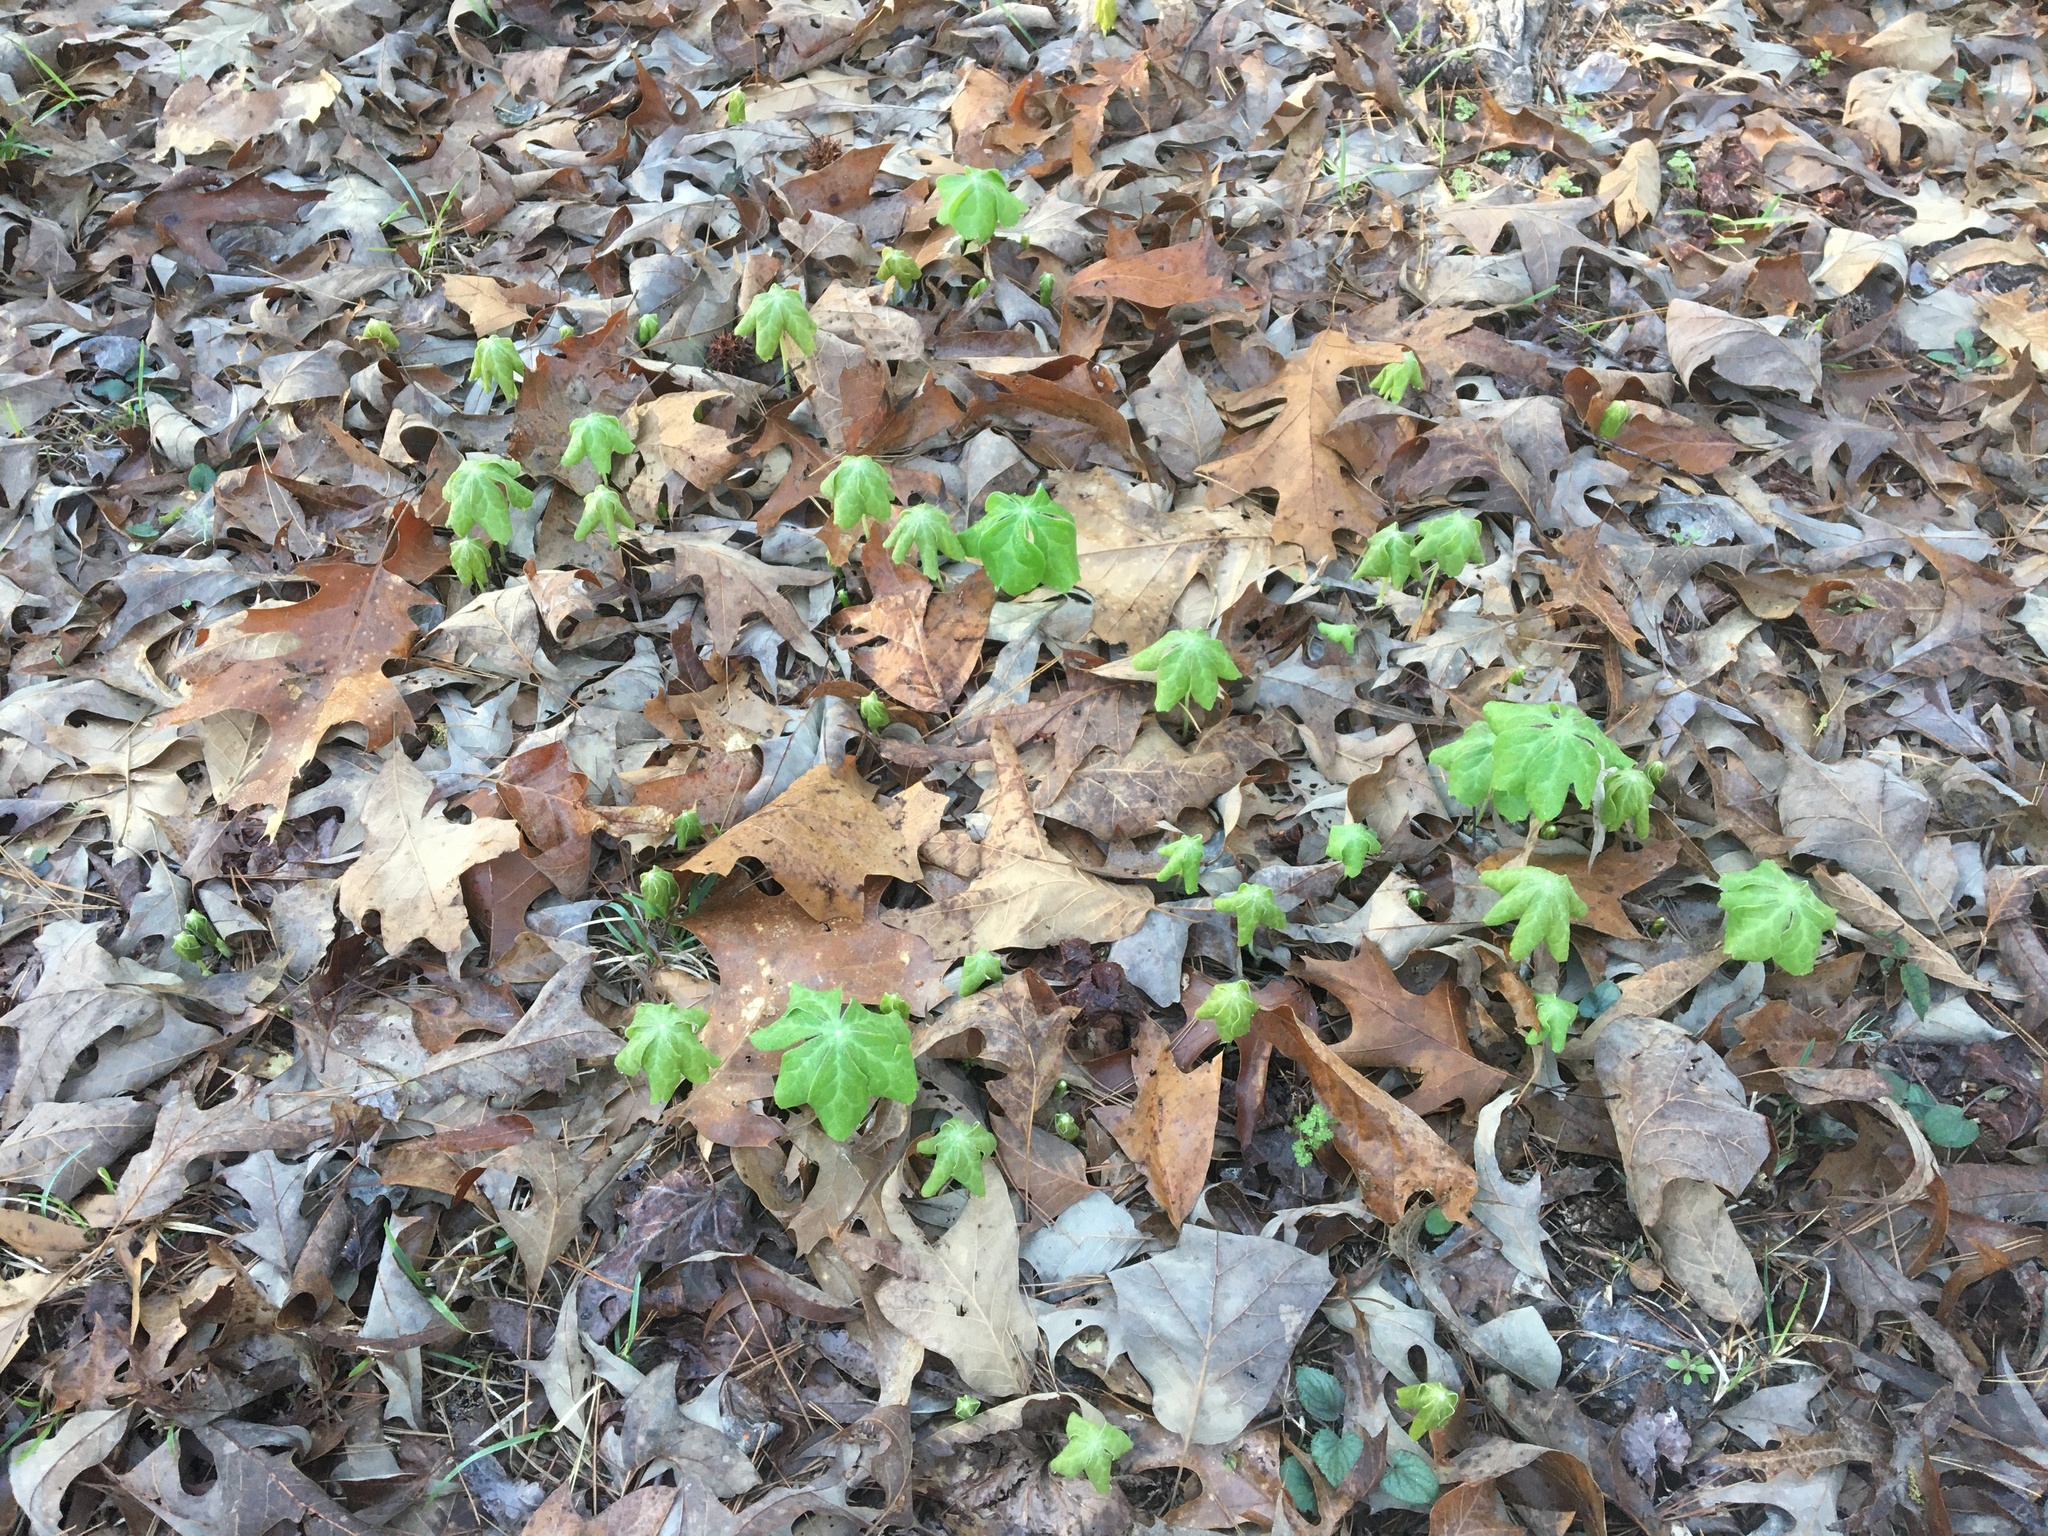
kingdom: Plantae
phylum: Tracheophyta
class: Magnoliopsida
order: Ranunculales
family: Berberidaceae
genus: Podophyllum
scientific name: Podophyllum peltatum
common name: Wild mandrake
